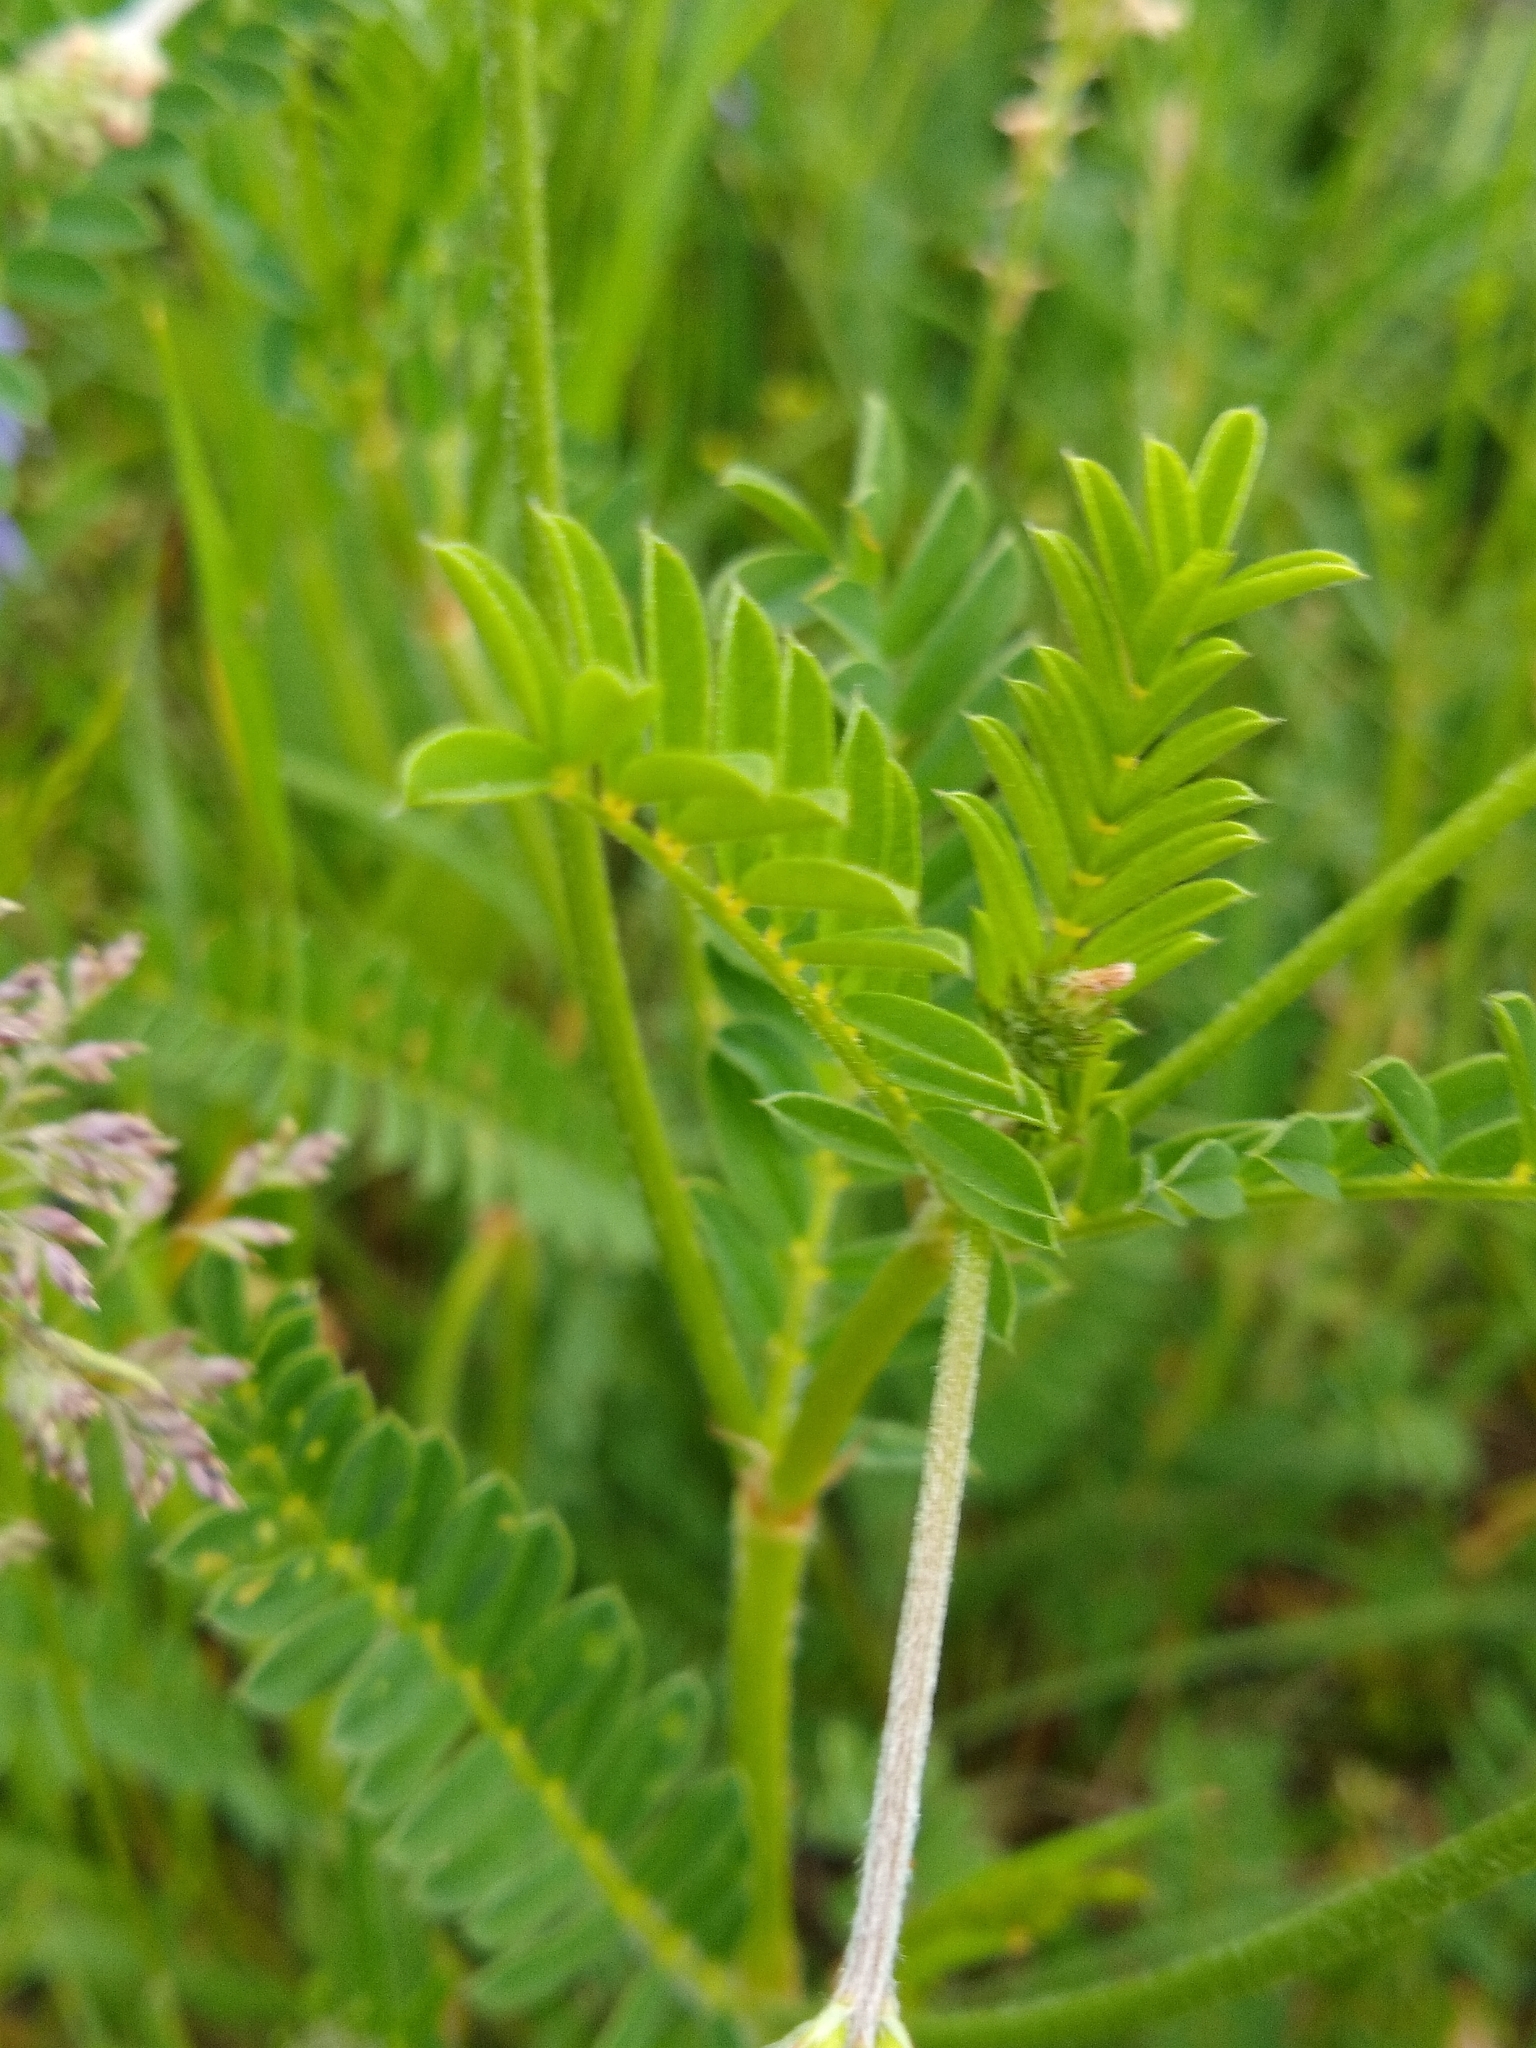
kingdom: Plantae
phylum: Tracheophyta
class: Magnoliopsida
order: Fabales
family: Fabaceae
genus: Onobrychis
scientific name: Onobrychis viciifolia
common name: Sainfoin
